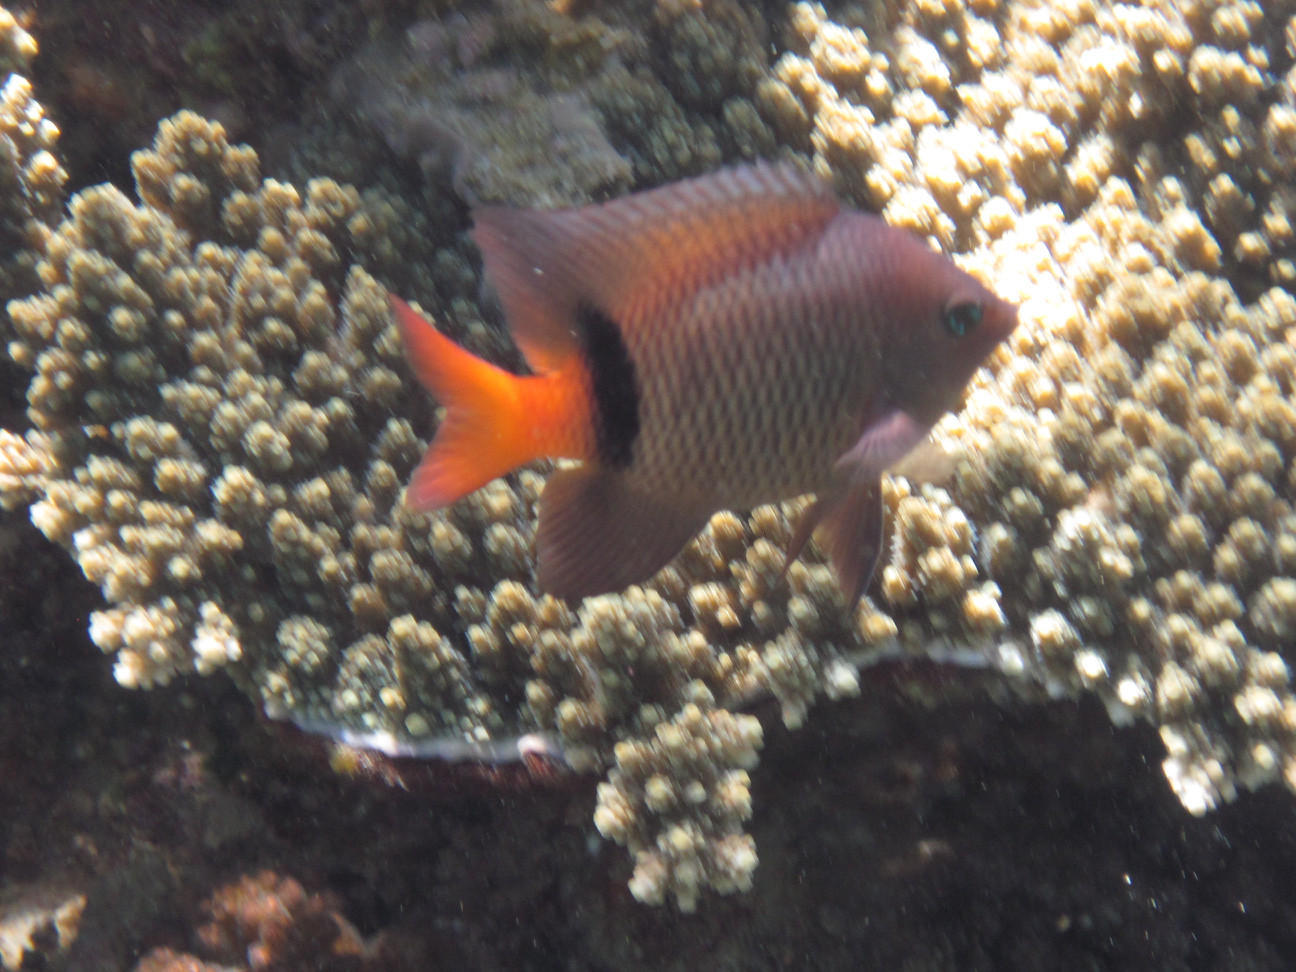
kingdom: Animalia
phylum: Chordata
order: Perciformes
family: Pomacentridae
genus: Plectroglyphidodon
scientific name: Plectroglyphidodon dickii
